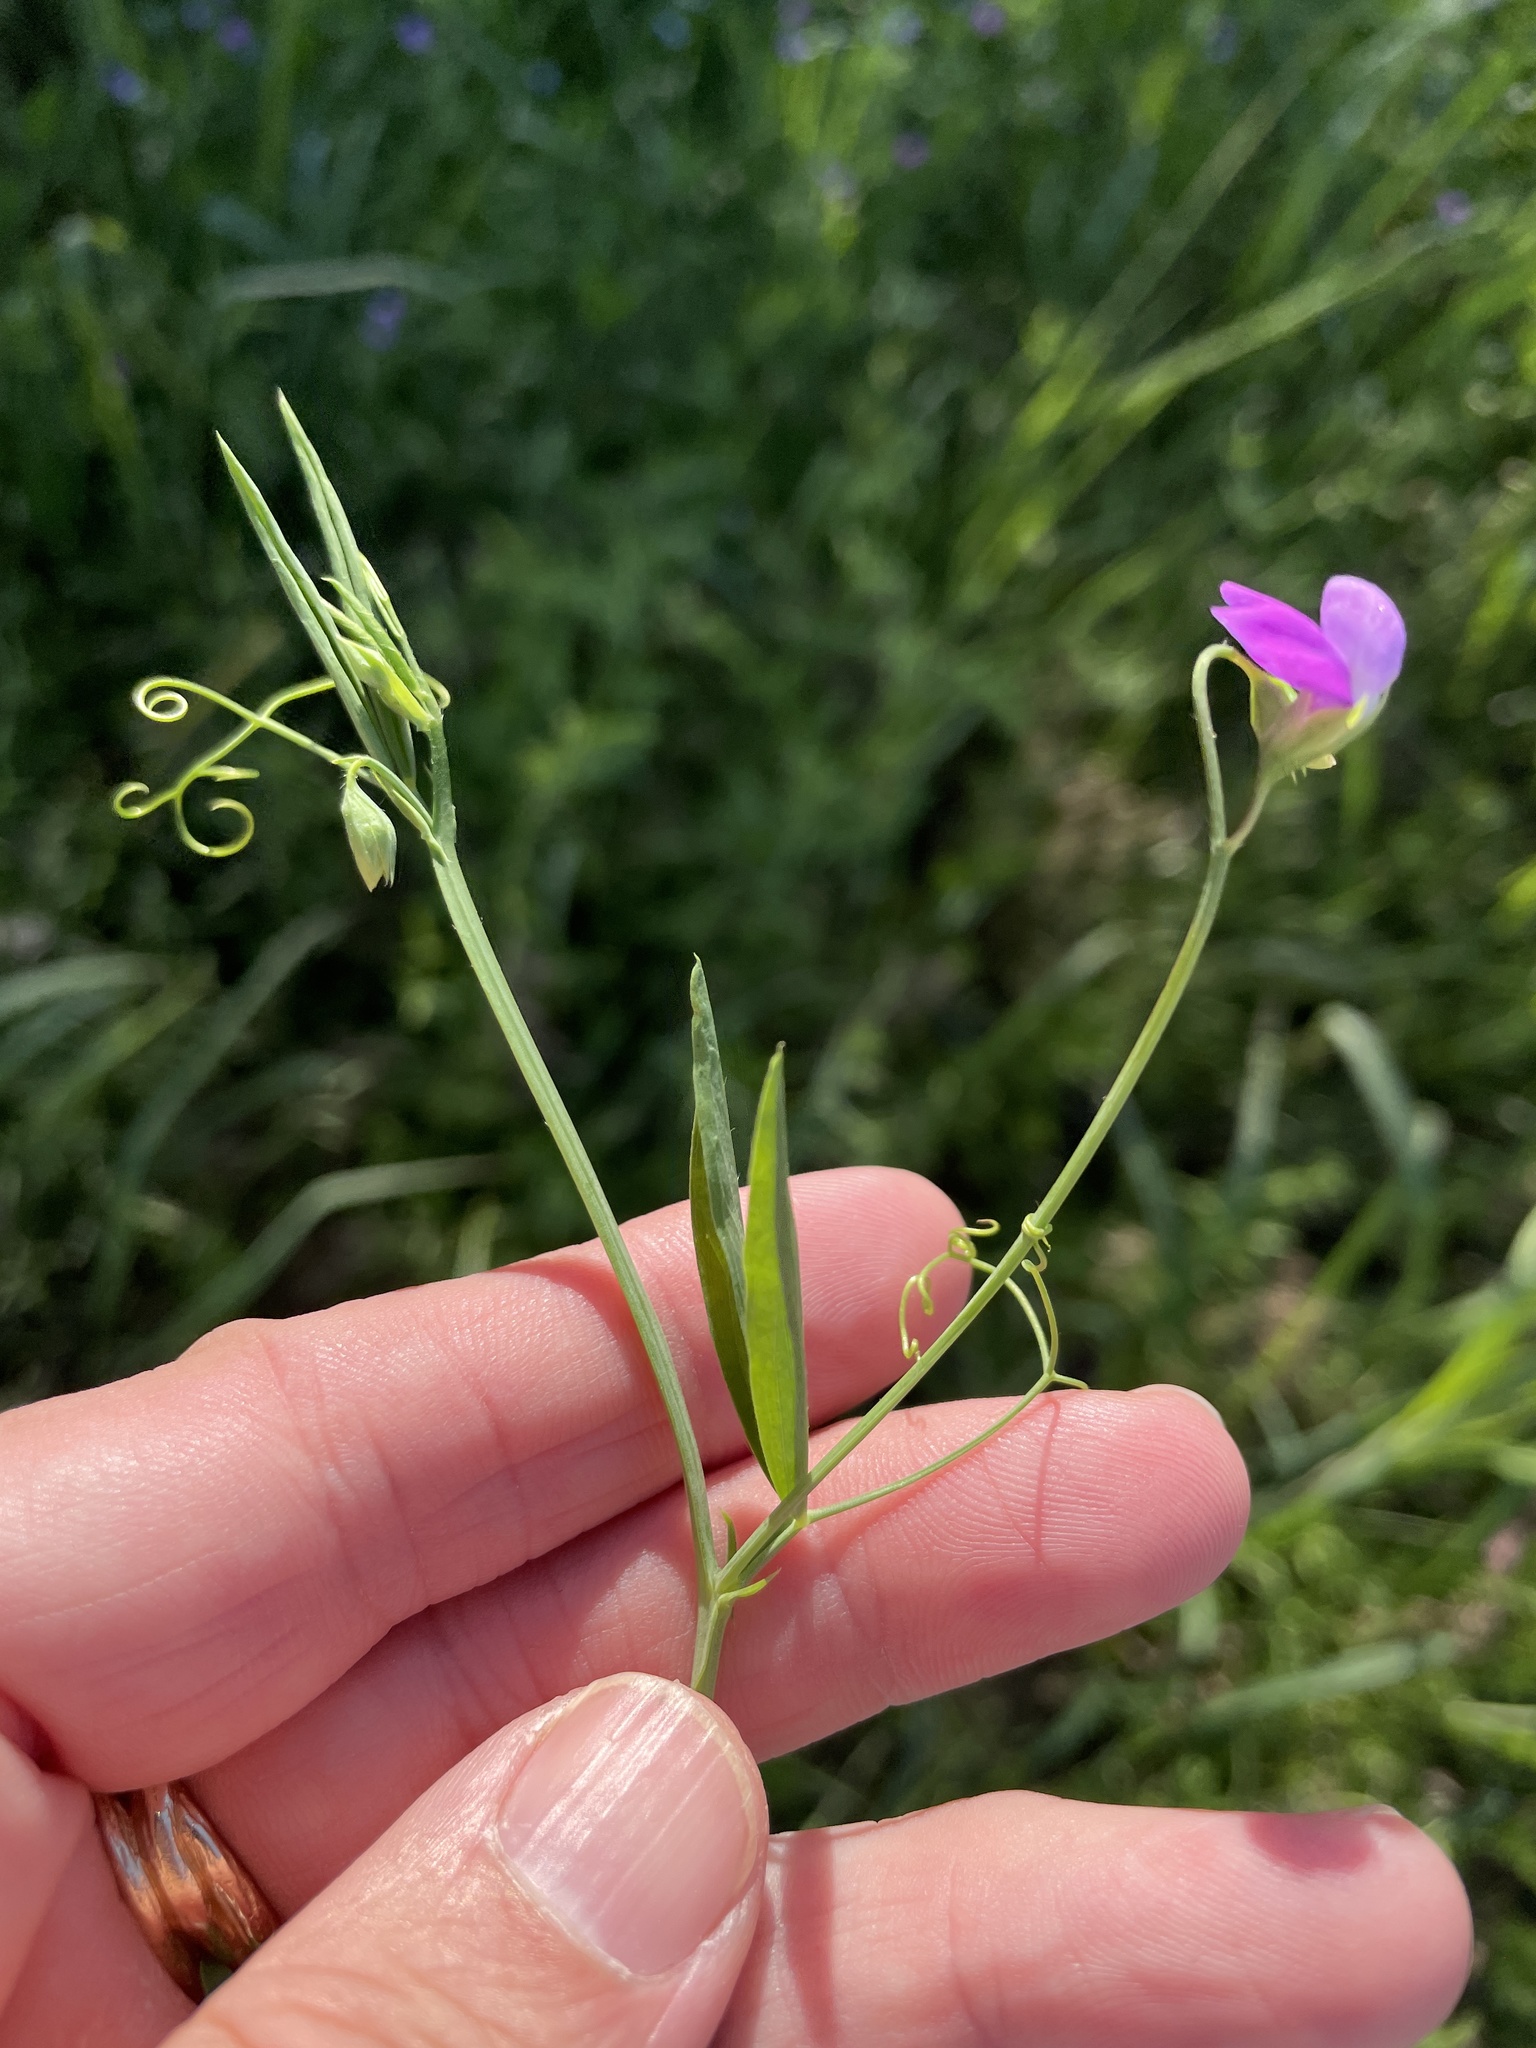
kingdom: Plantae
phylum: Tracheophyta
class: Magnoliopsida
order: Fabales
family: Fabaceae
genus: Lathyrus
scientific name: Lathyrus hirsutus
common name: Hairy vetchling
